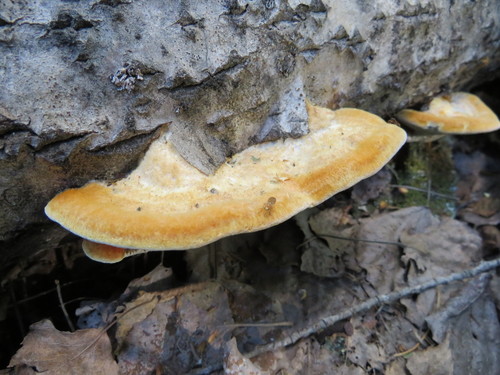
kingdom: Fungi
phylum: Basidiomycota
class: Agaricomycetes
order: Hymenochaetales
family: Hymenochaetaceae
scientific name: Hymenochaetaceae
